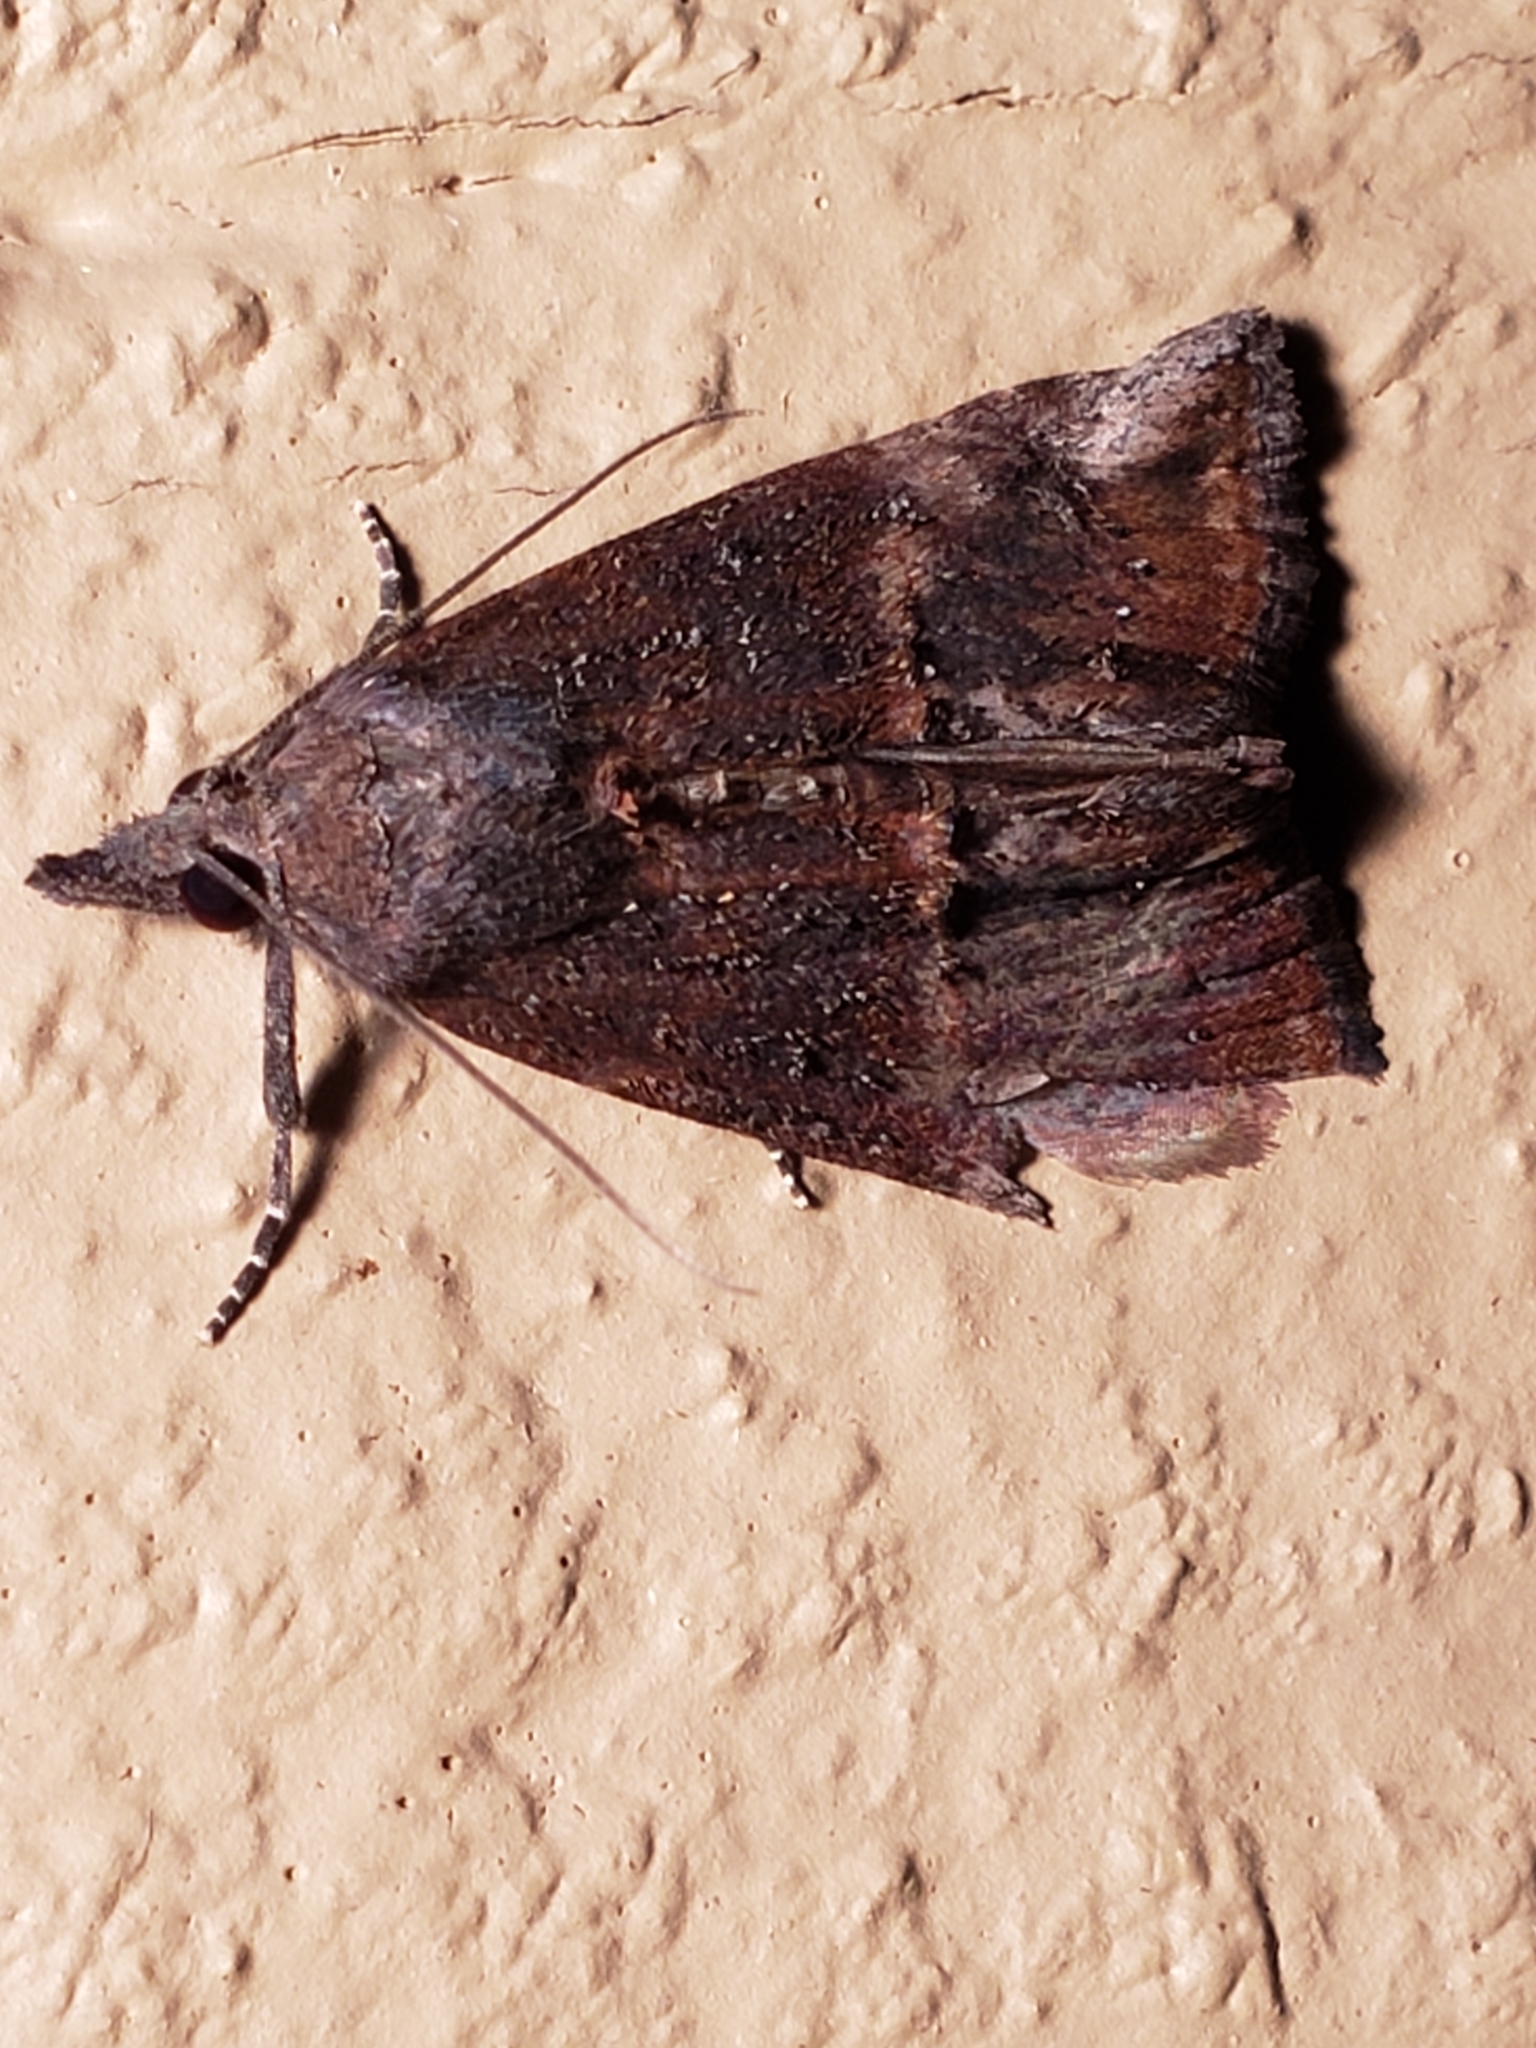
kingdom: Animalia
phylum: Arthropoda
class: Insecta
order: Lepidoptera
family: Erebidae
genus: Hypena
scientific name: Hypena scabra
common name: Green cloverworm
